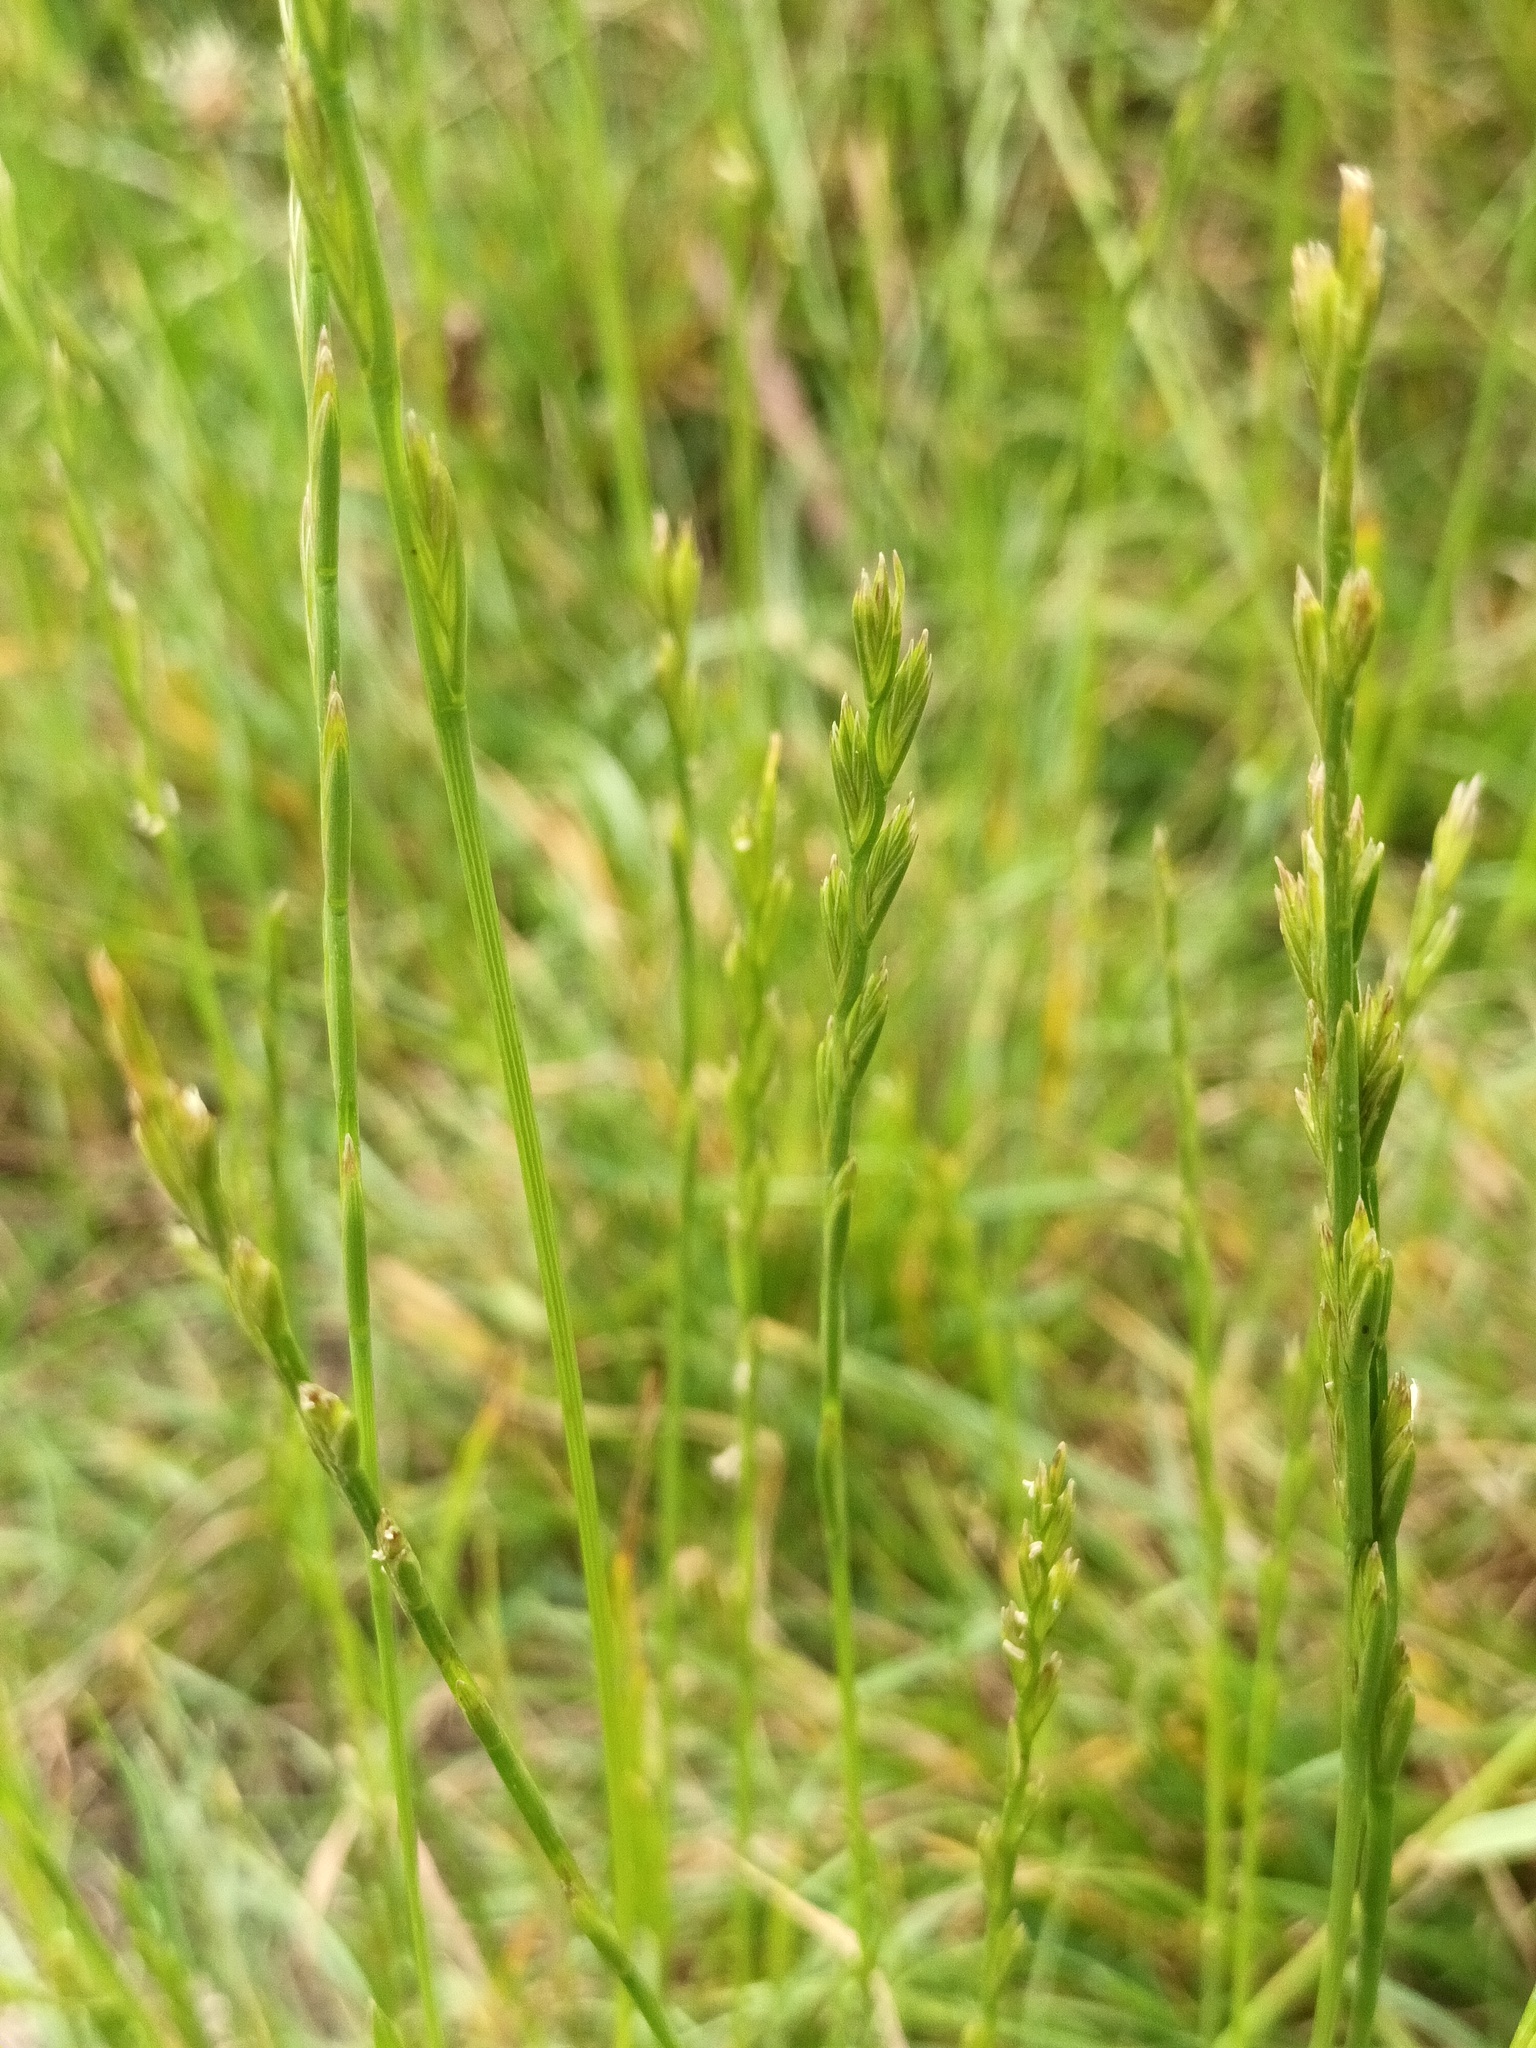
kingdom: Plantae
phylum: Tracheophyta
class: Liliopsida
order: Poales
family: Poaceae
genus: Lolium
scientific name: Lolium perenne
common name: Perennial ryegrass
